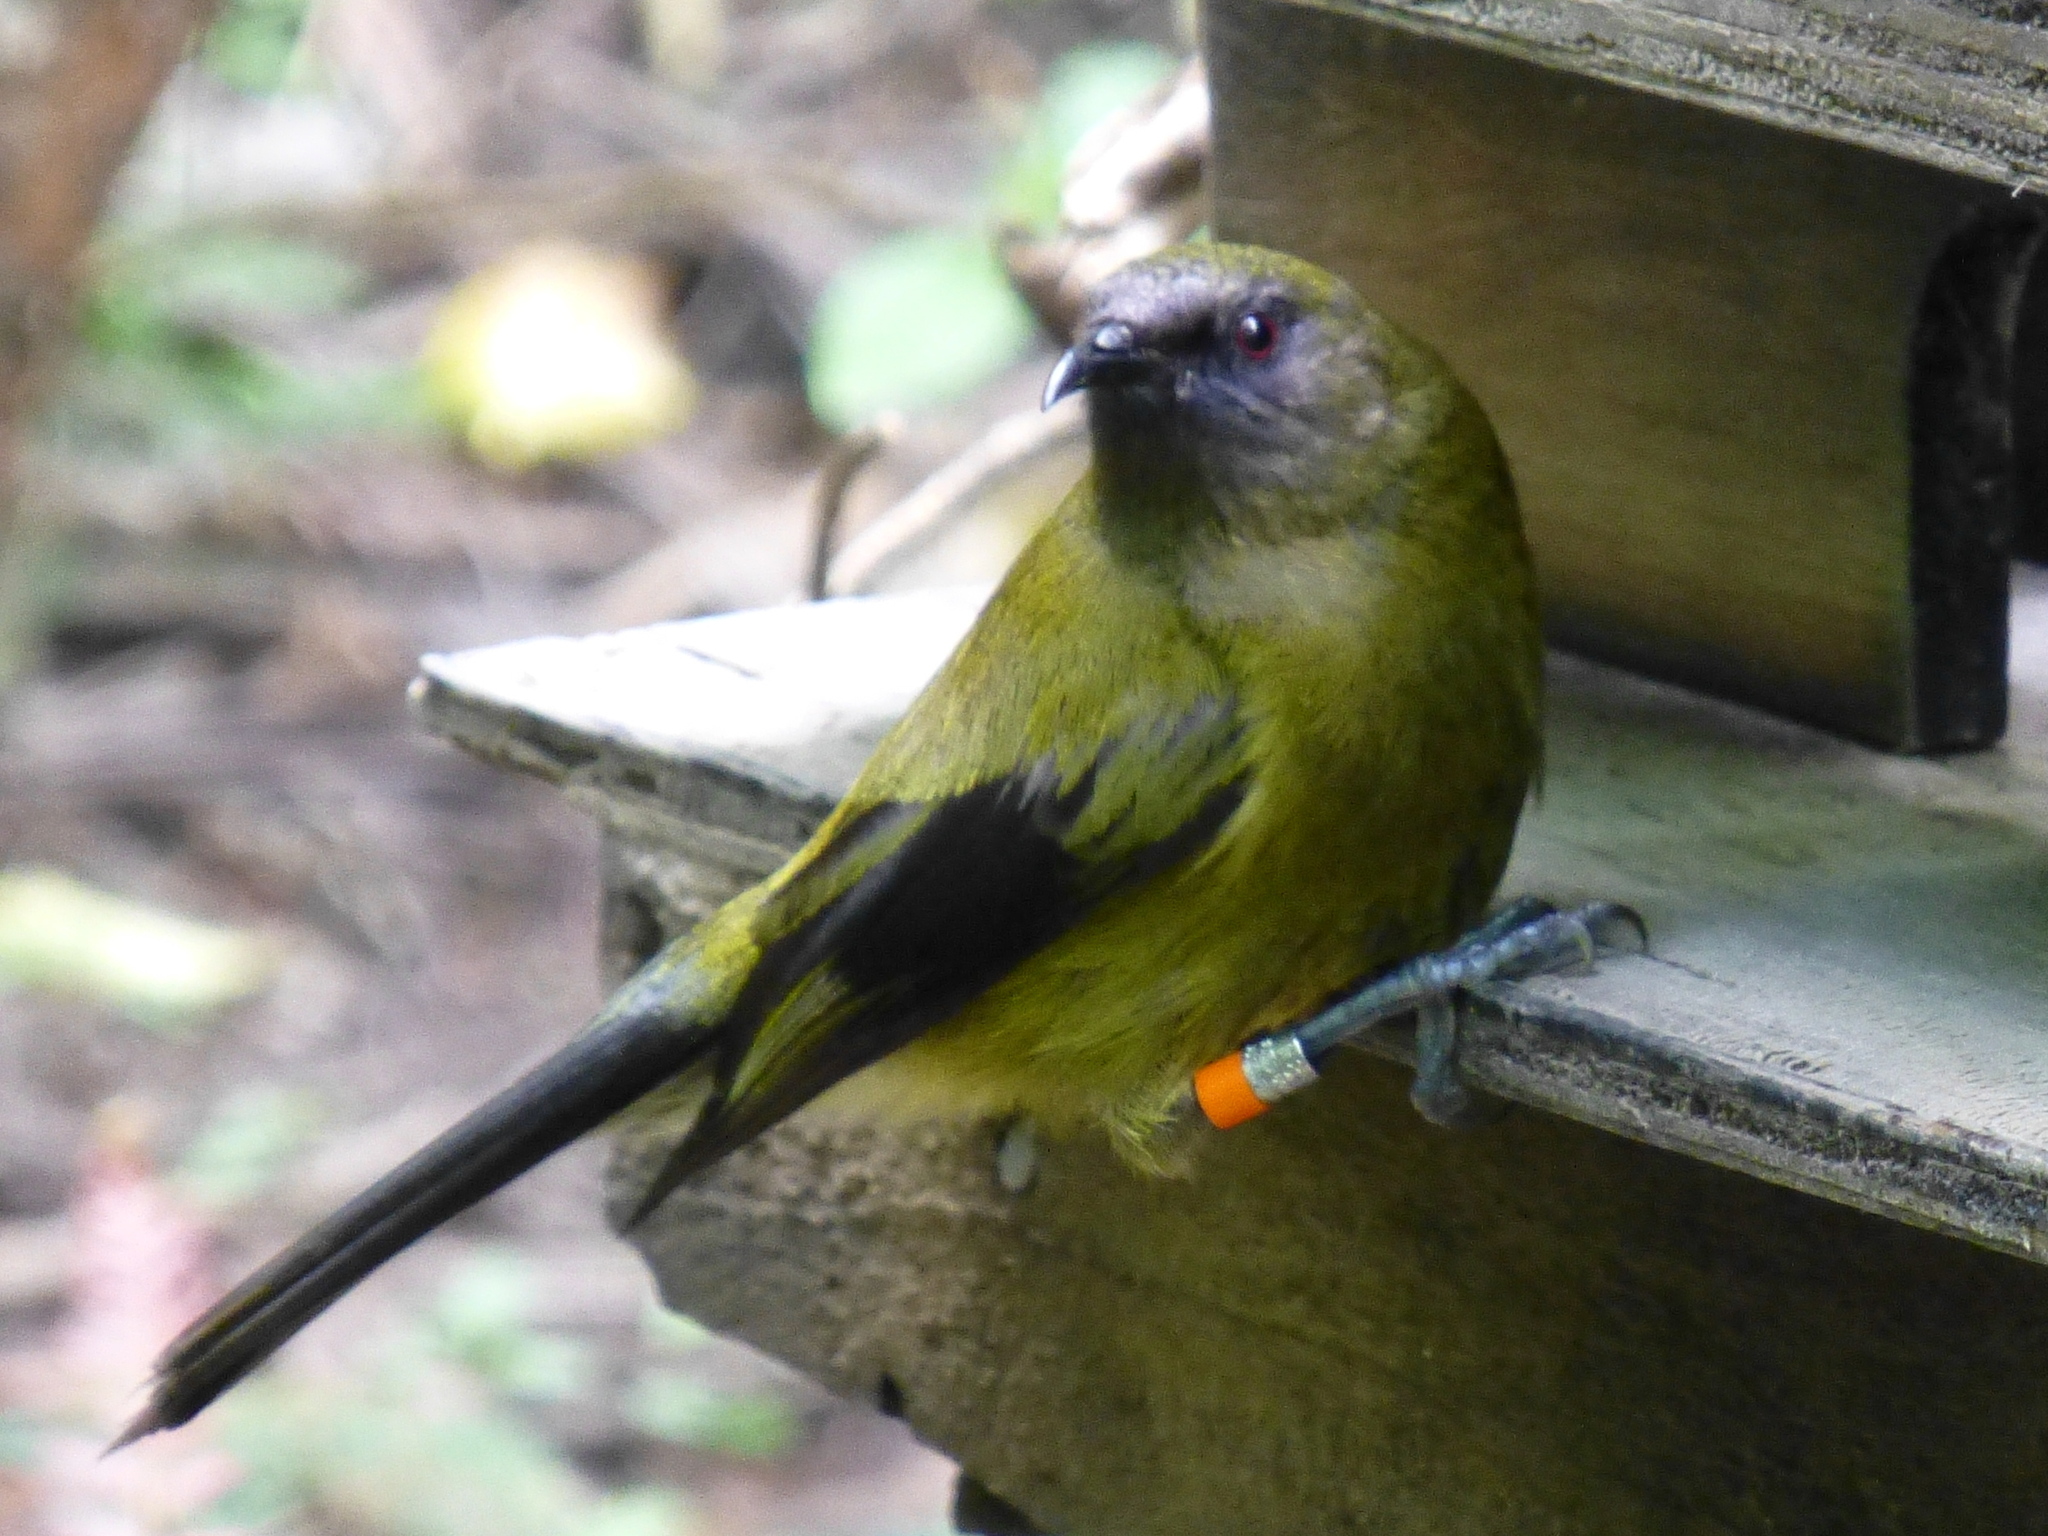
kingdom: Animalia
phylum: Chordata
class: Aves
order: Passeriformes
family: Meliphagidae
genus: Anthornis
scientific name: Anthornis melanura
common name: New zealand bellbird
